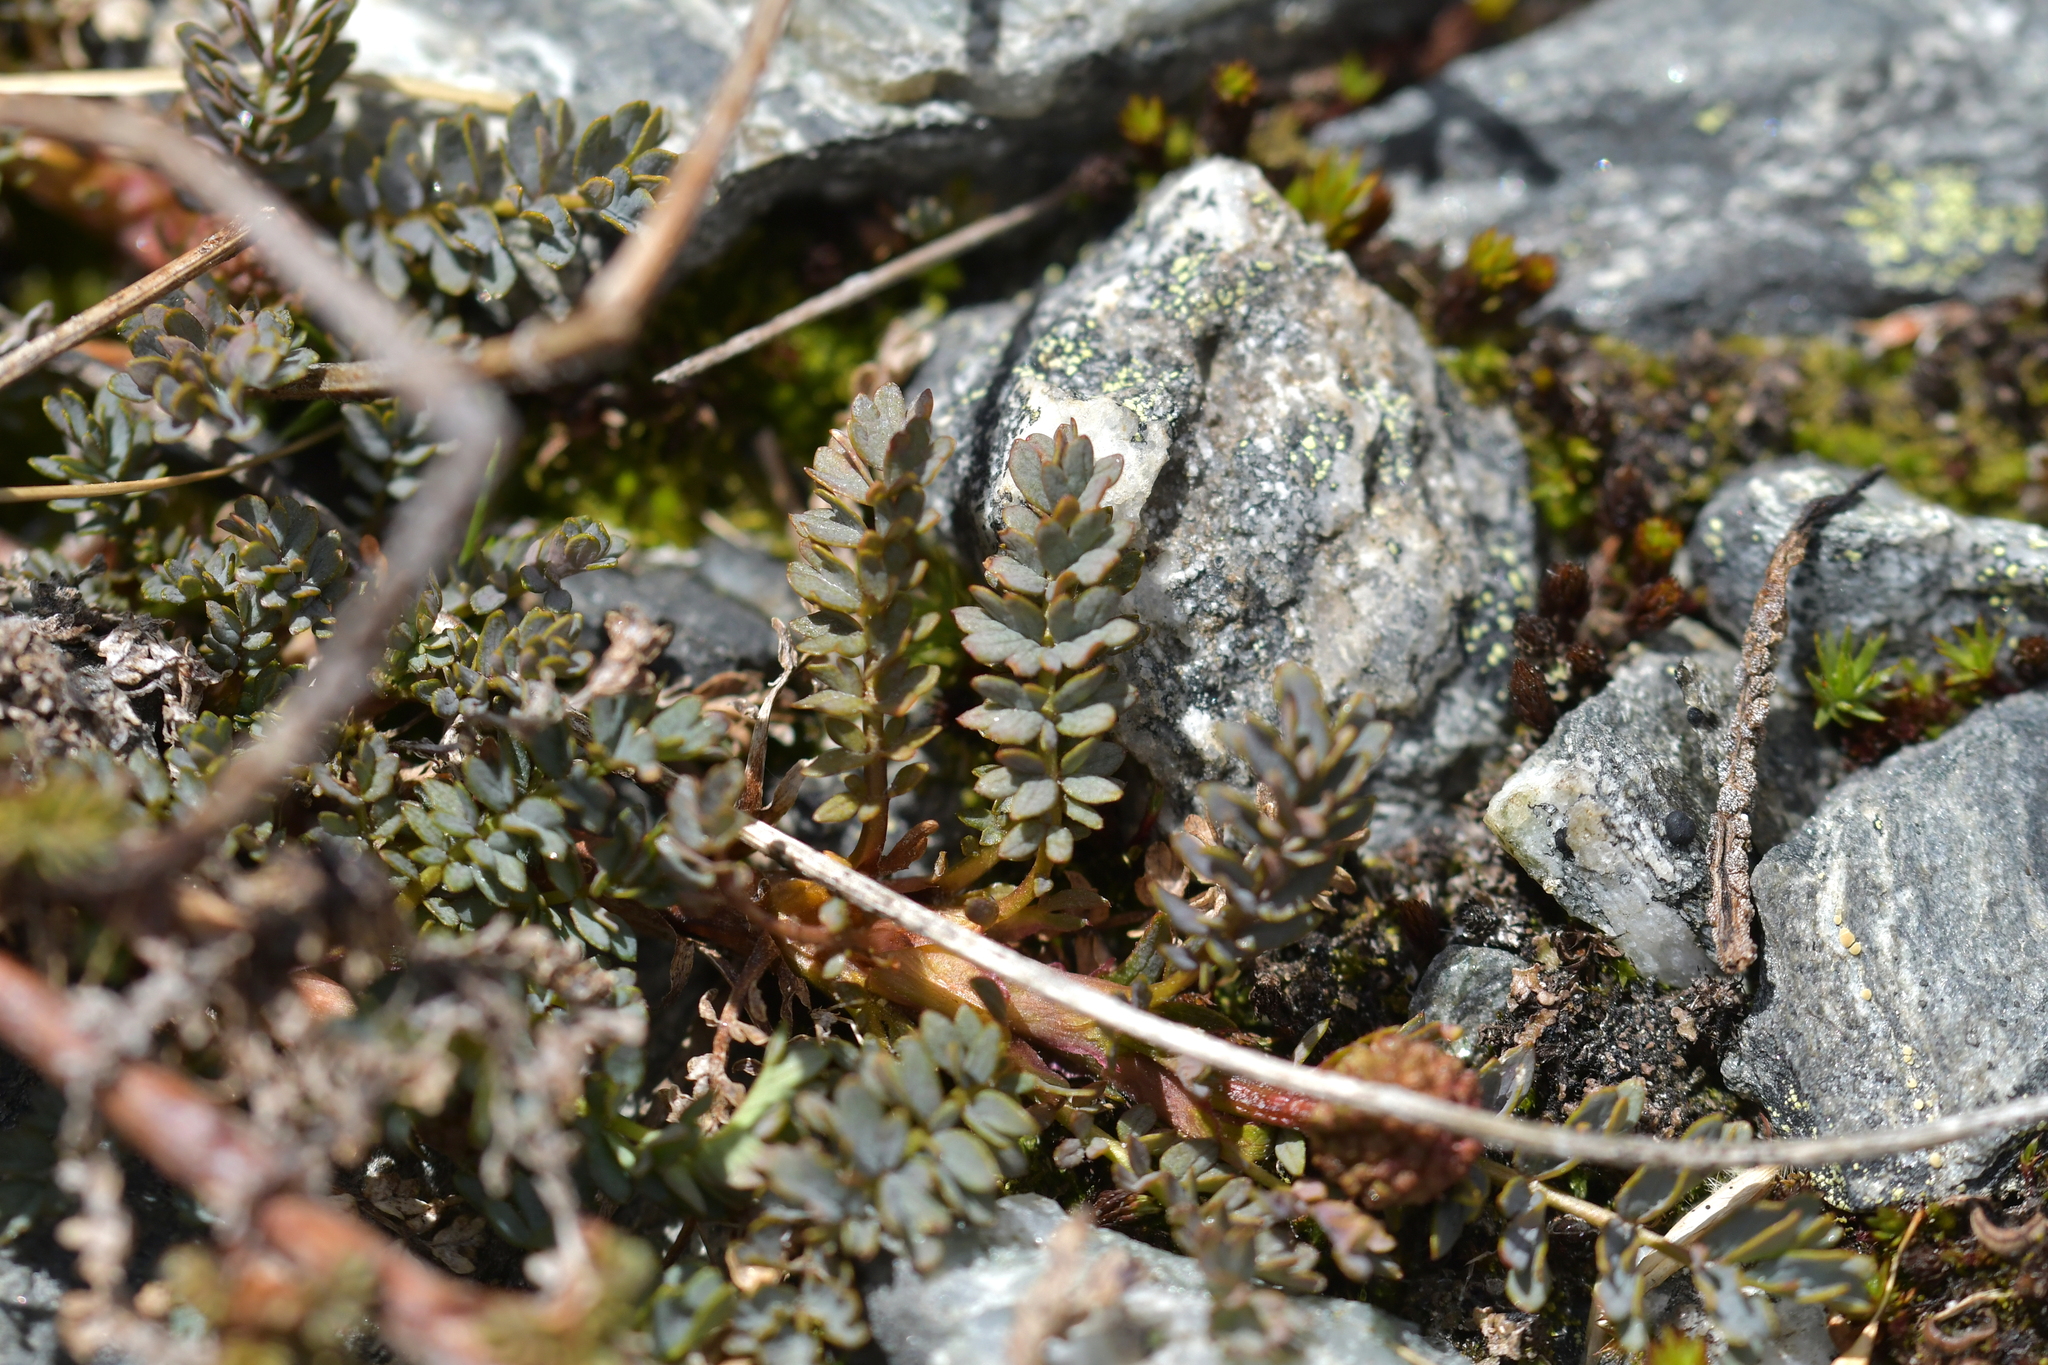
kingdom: Plantae
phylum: Tracheophyta
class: Magnoliopsida
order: Rosales
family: Rosaceae
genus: Acaena
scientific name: Acaena saccaticupula
